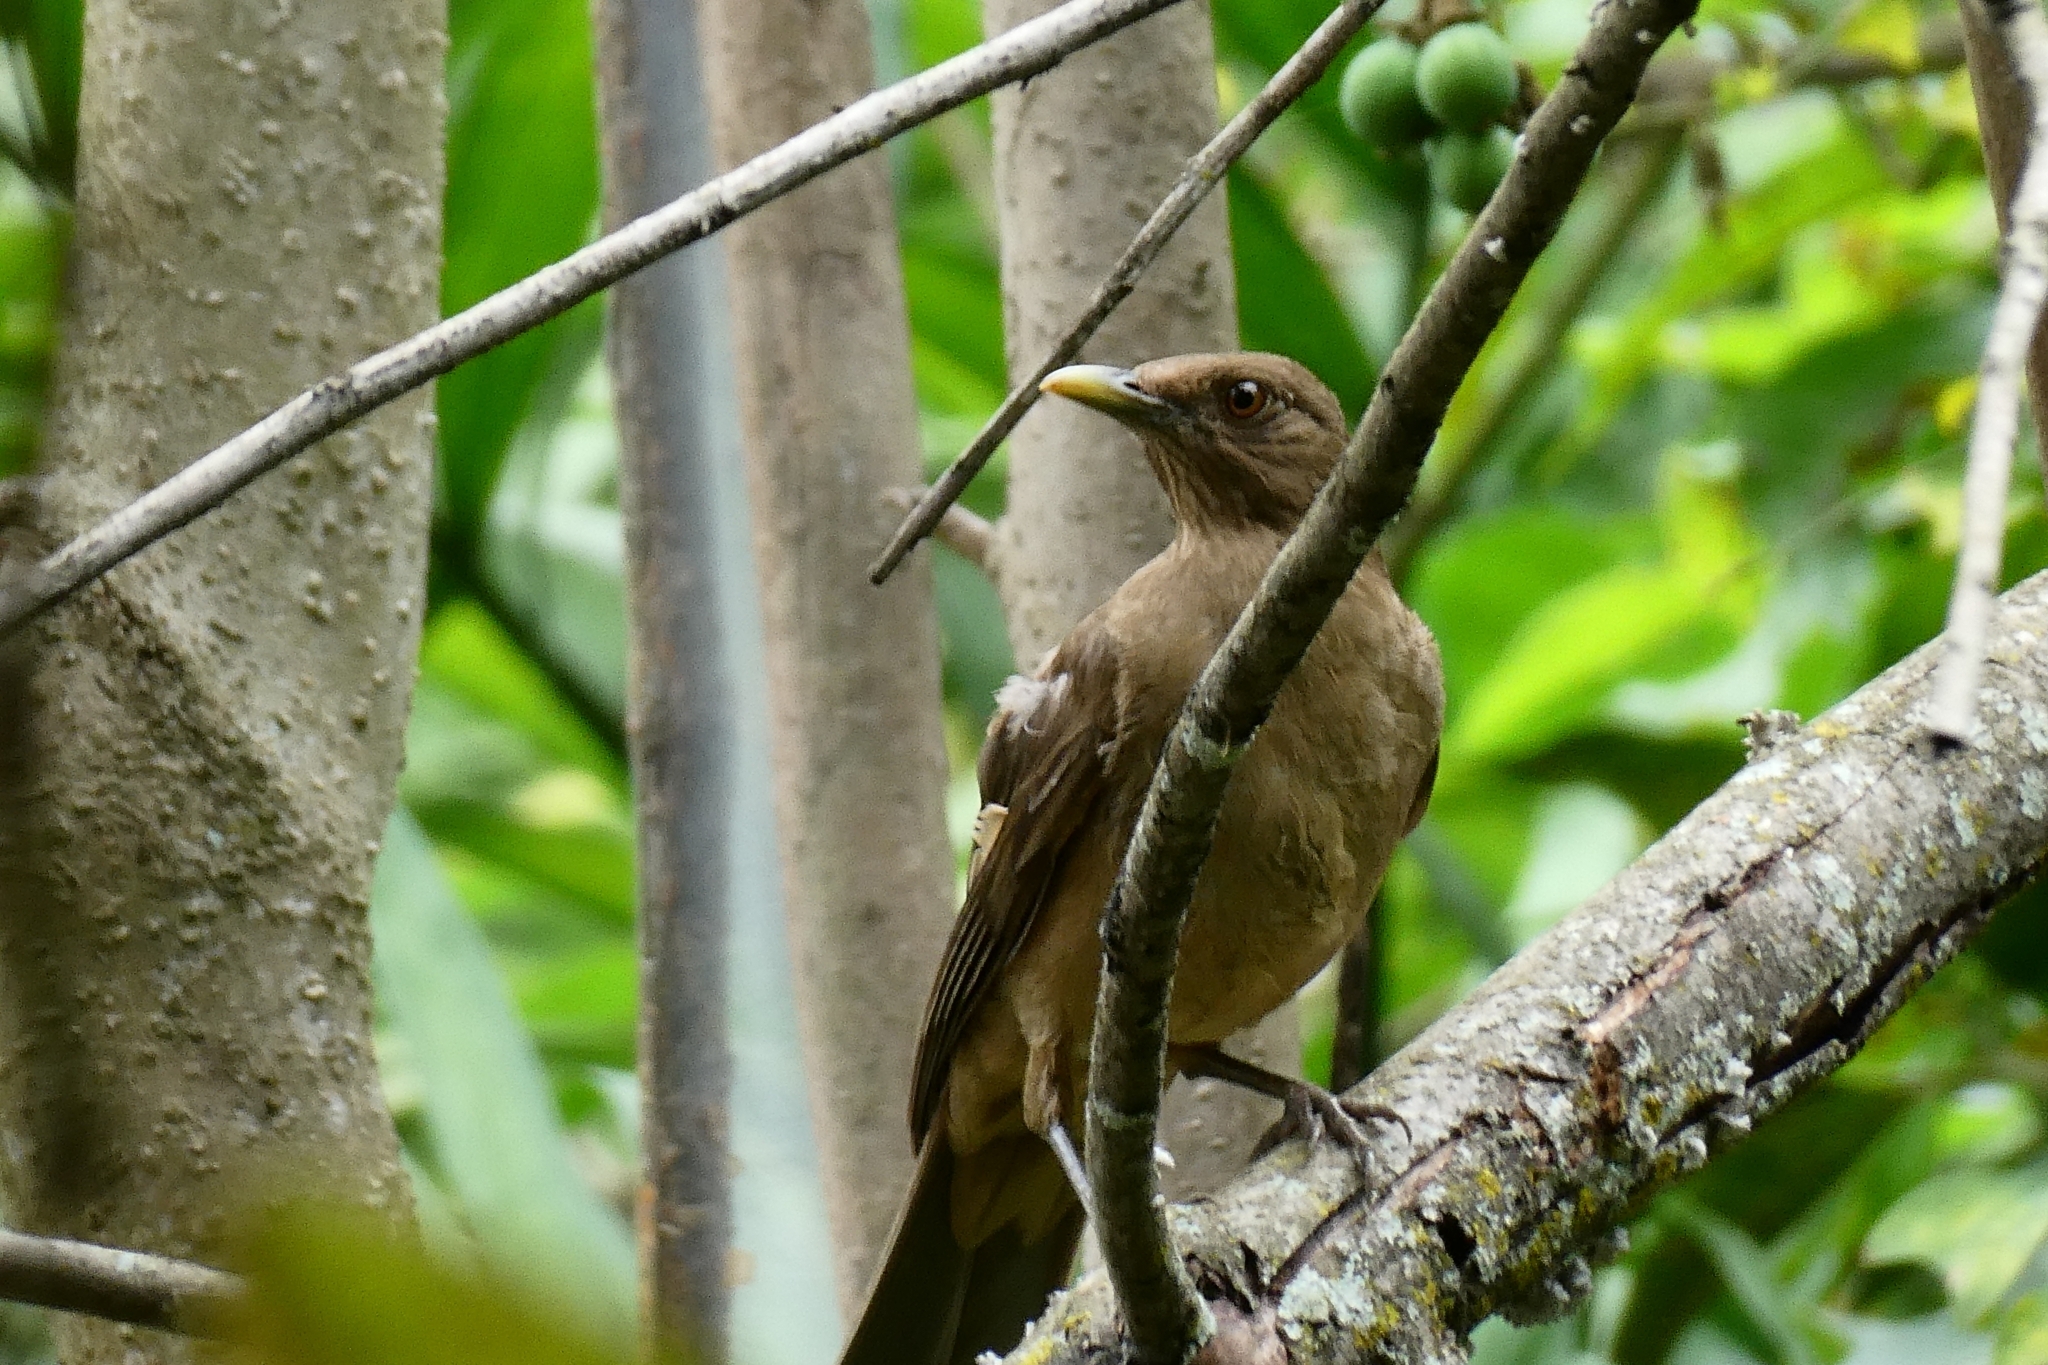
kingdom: Animalia
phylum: Chordata
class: Aves
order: Passeriformes
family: Turdidae
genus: Turdus
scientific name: Turdus grayi
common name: Clay-colored thrush
